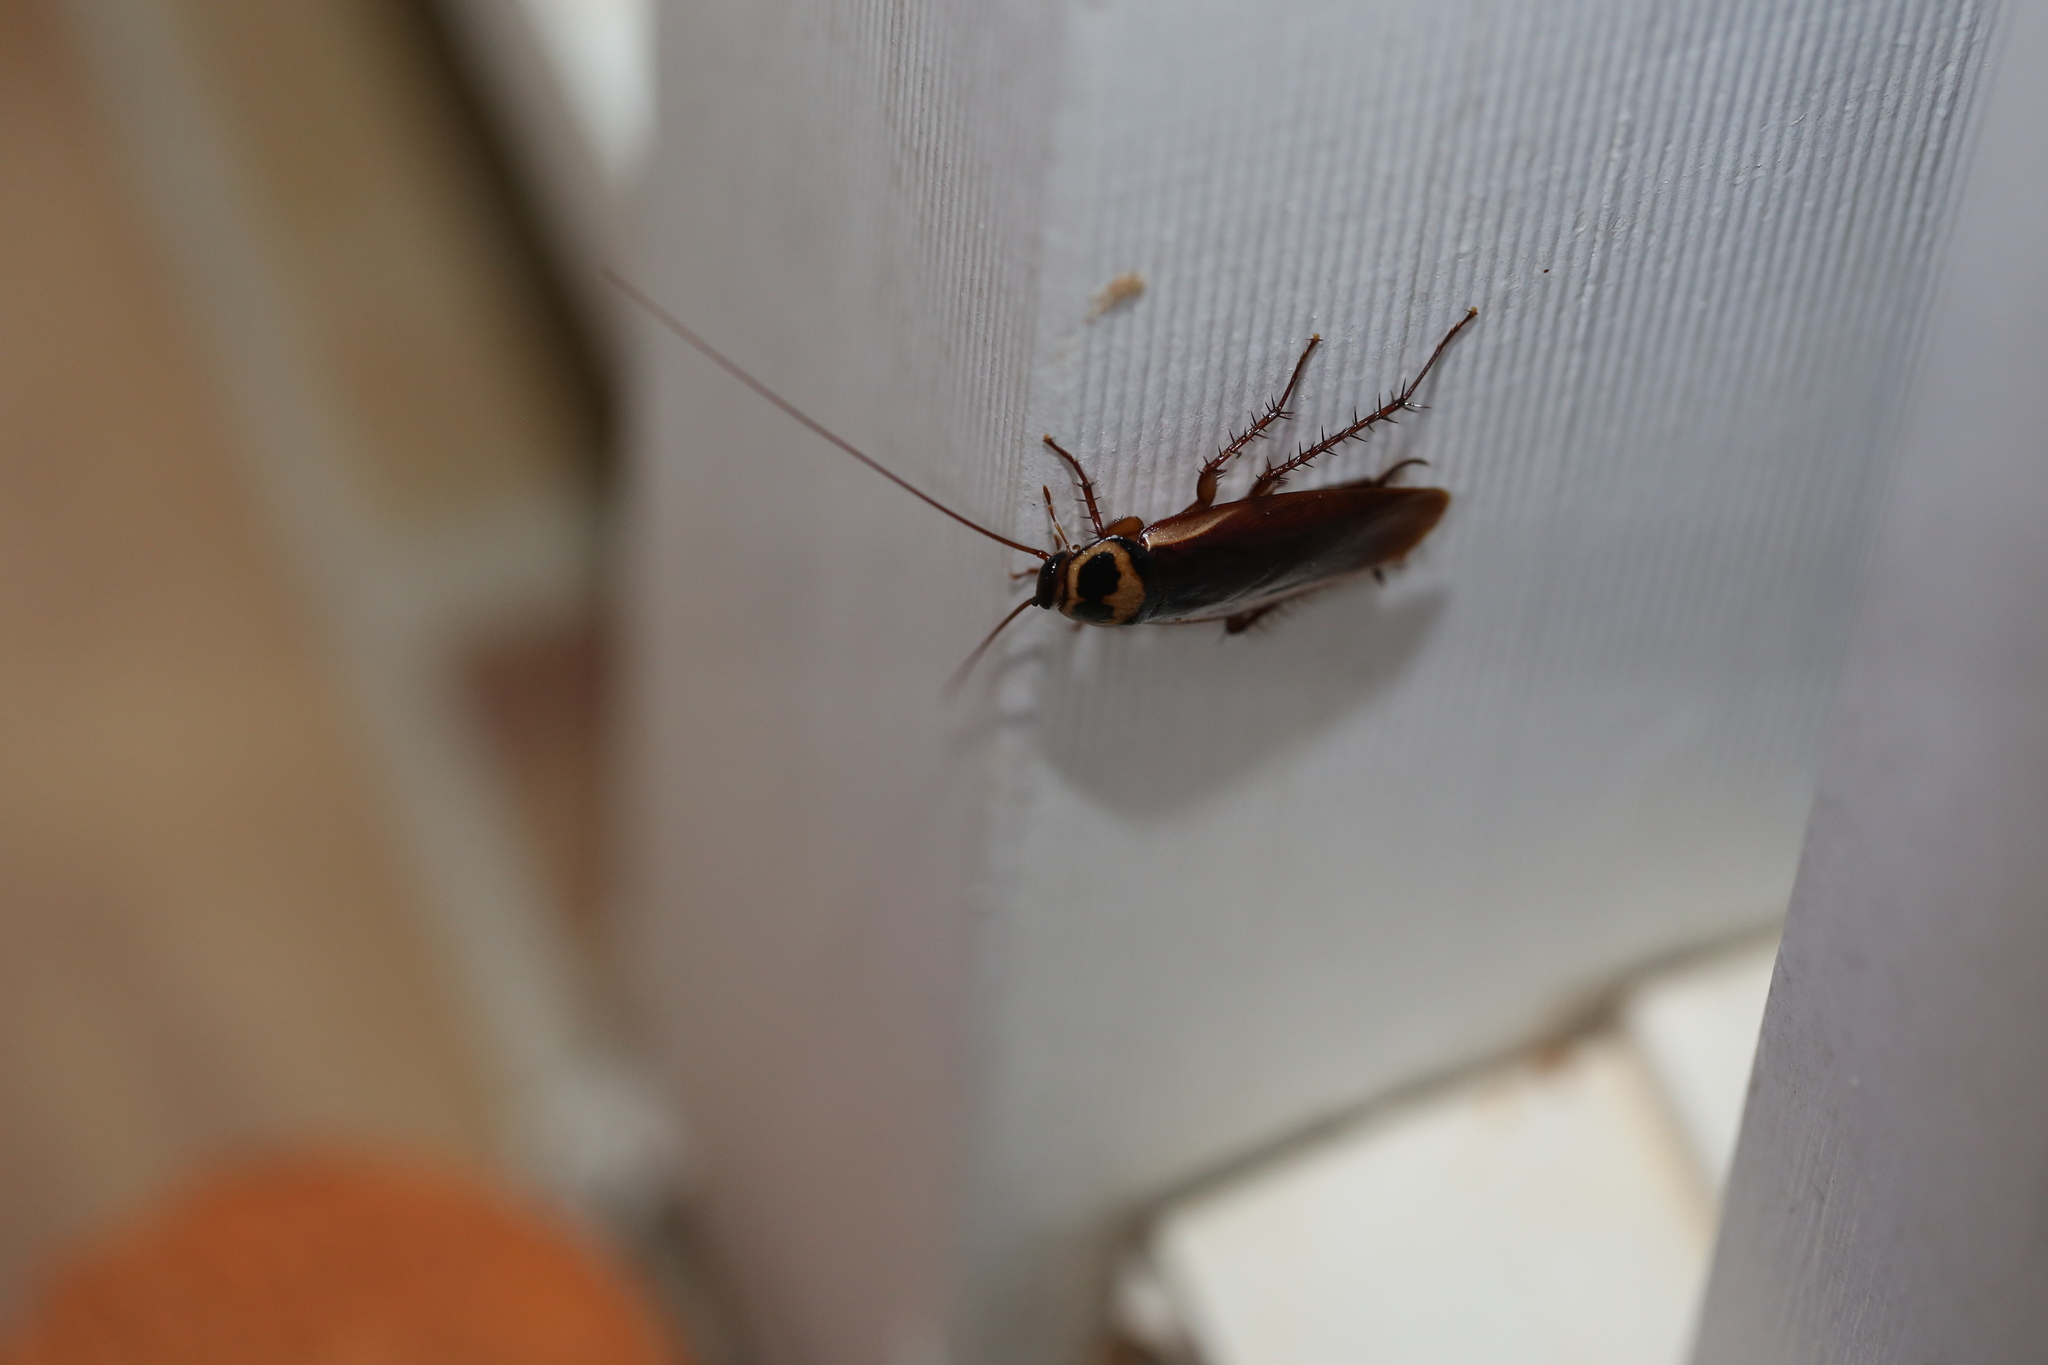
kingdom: Animalia
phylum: Arthropoda
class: Insecta
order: Blattodea
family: Blattidae
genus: Periplaneta
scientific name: Periplaneta australasiae
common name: Australian cockroach
